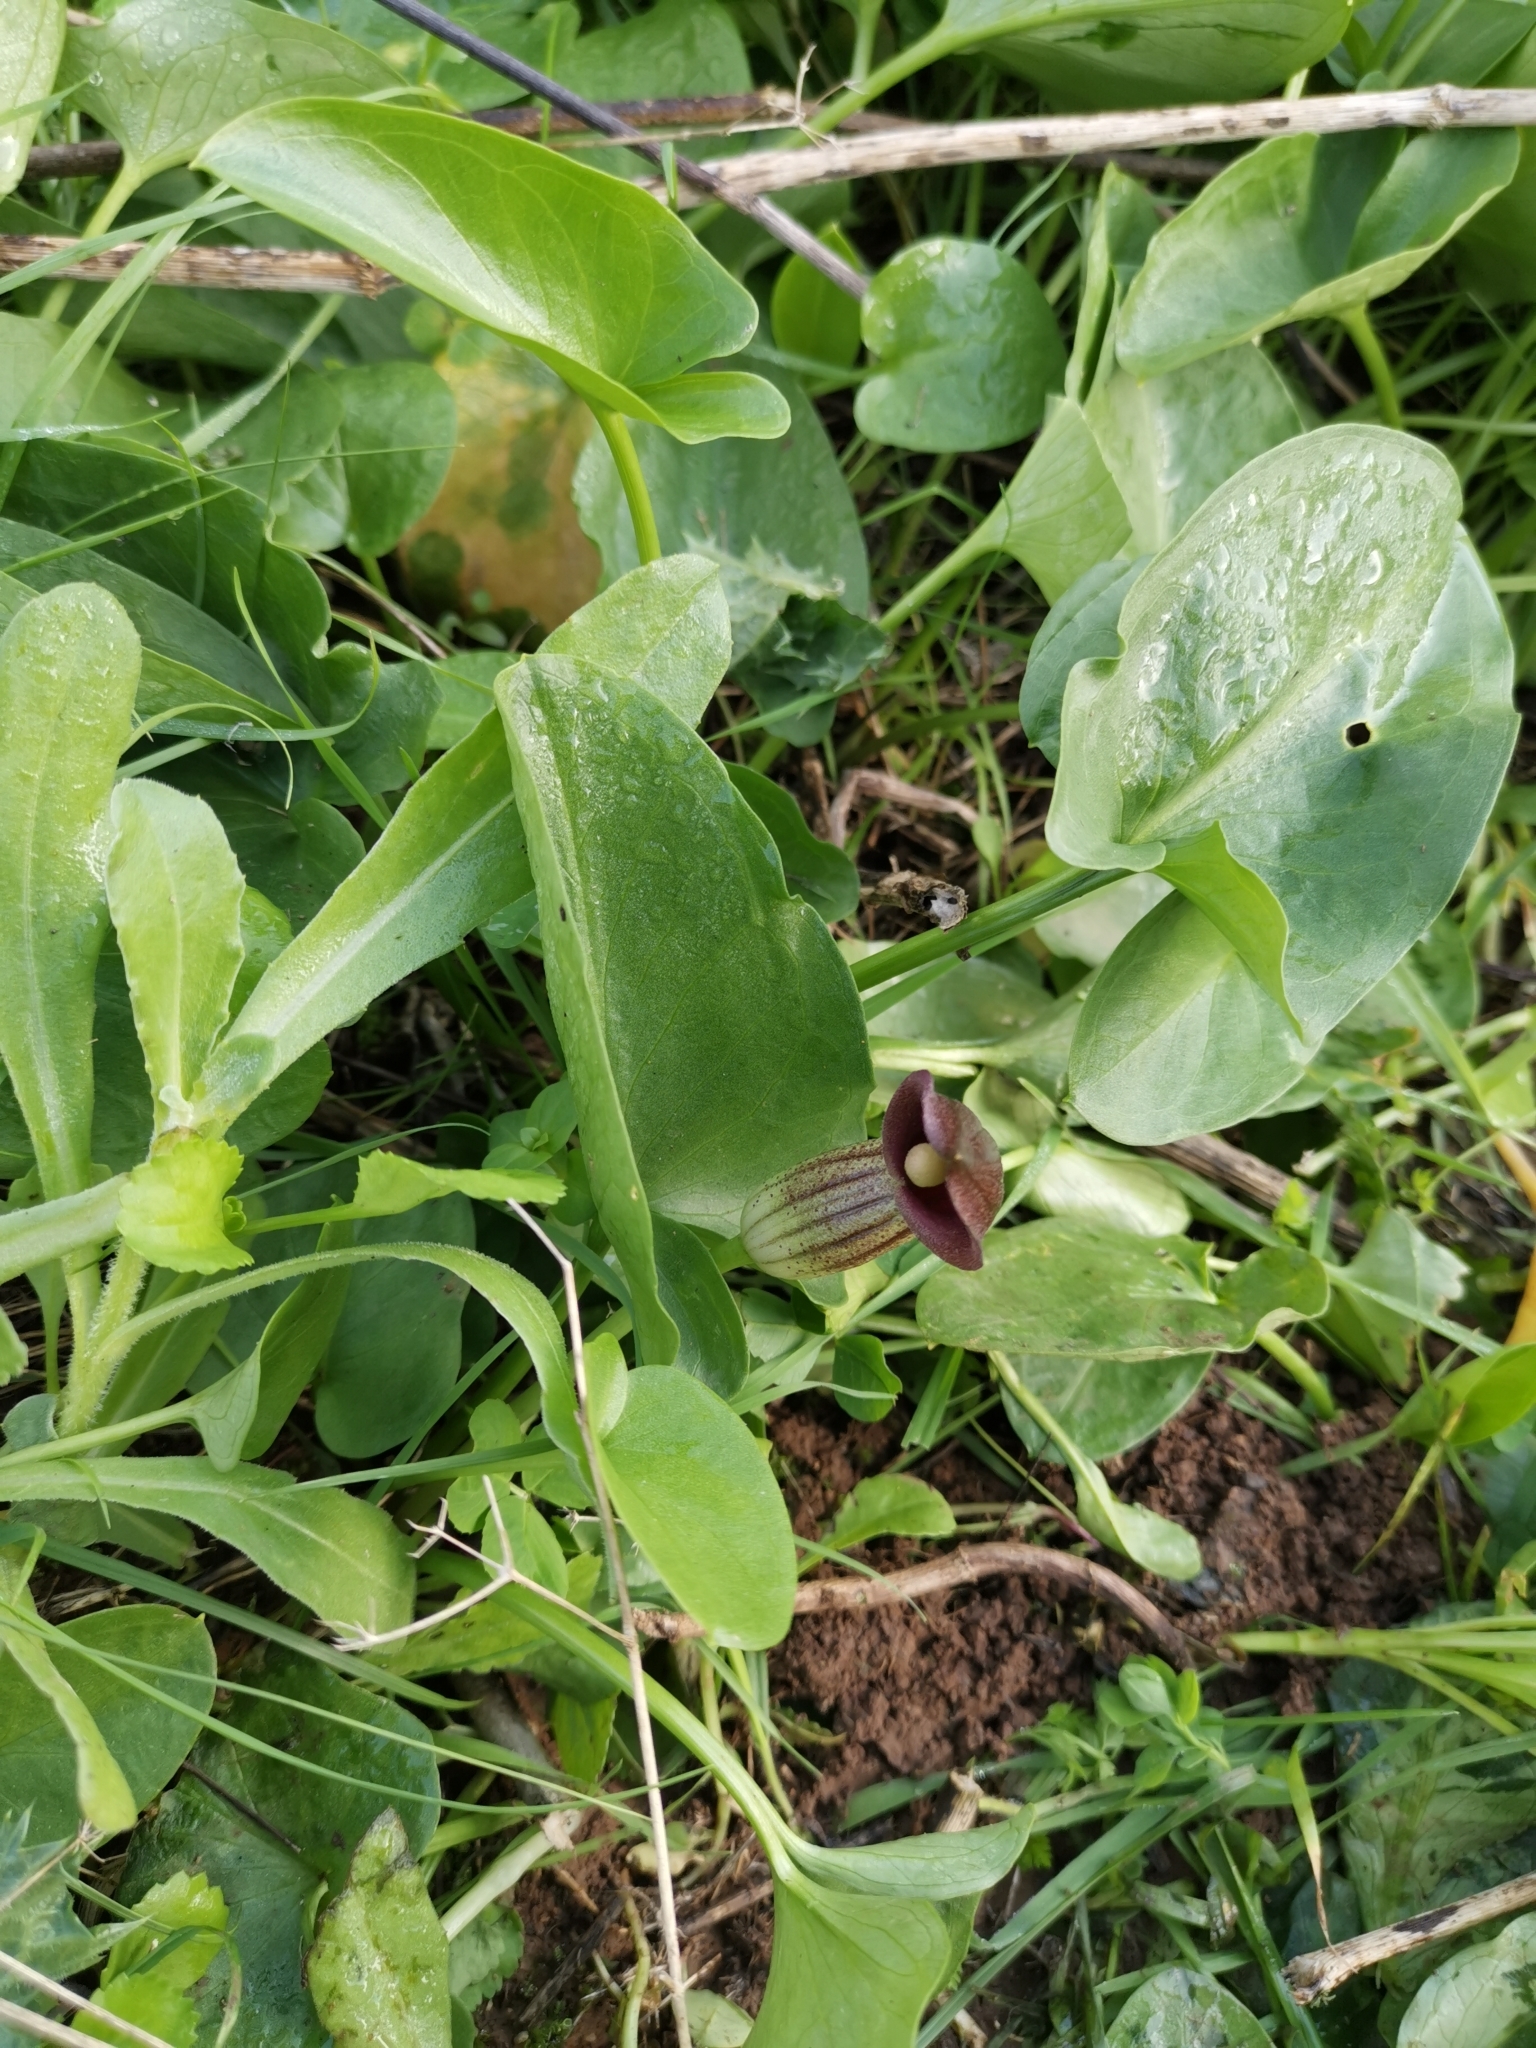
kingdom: Plantae
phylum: Tracheophyta
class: Liliopsida
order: Alismatales
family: Araceae
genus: Arisarum
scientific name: Arisarum simorrhinum
